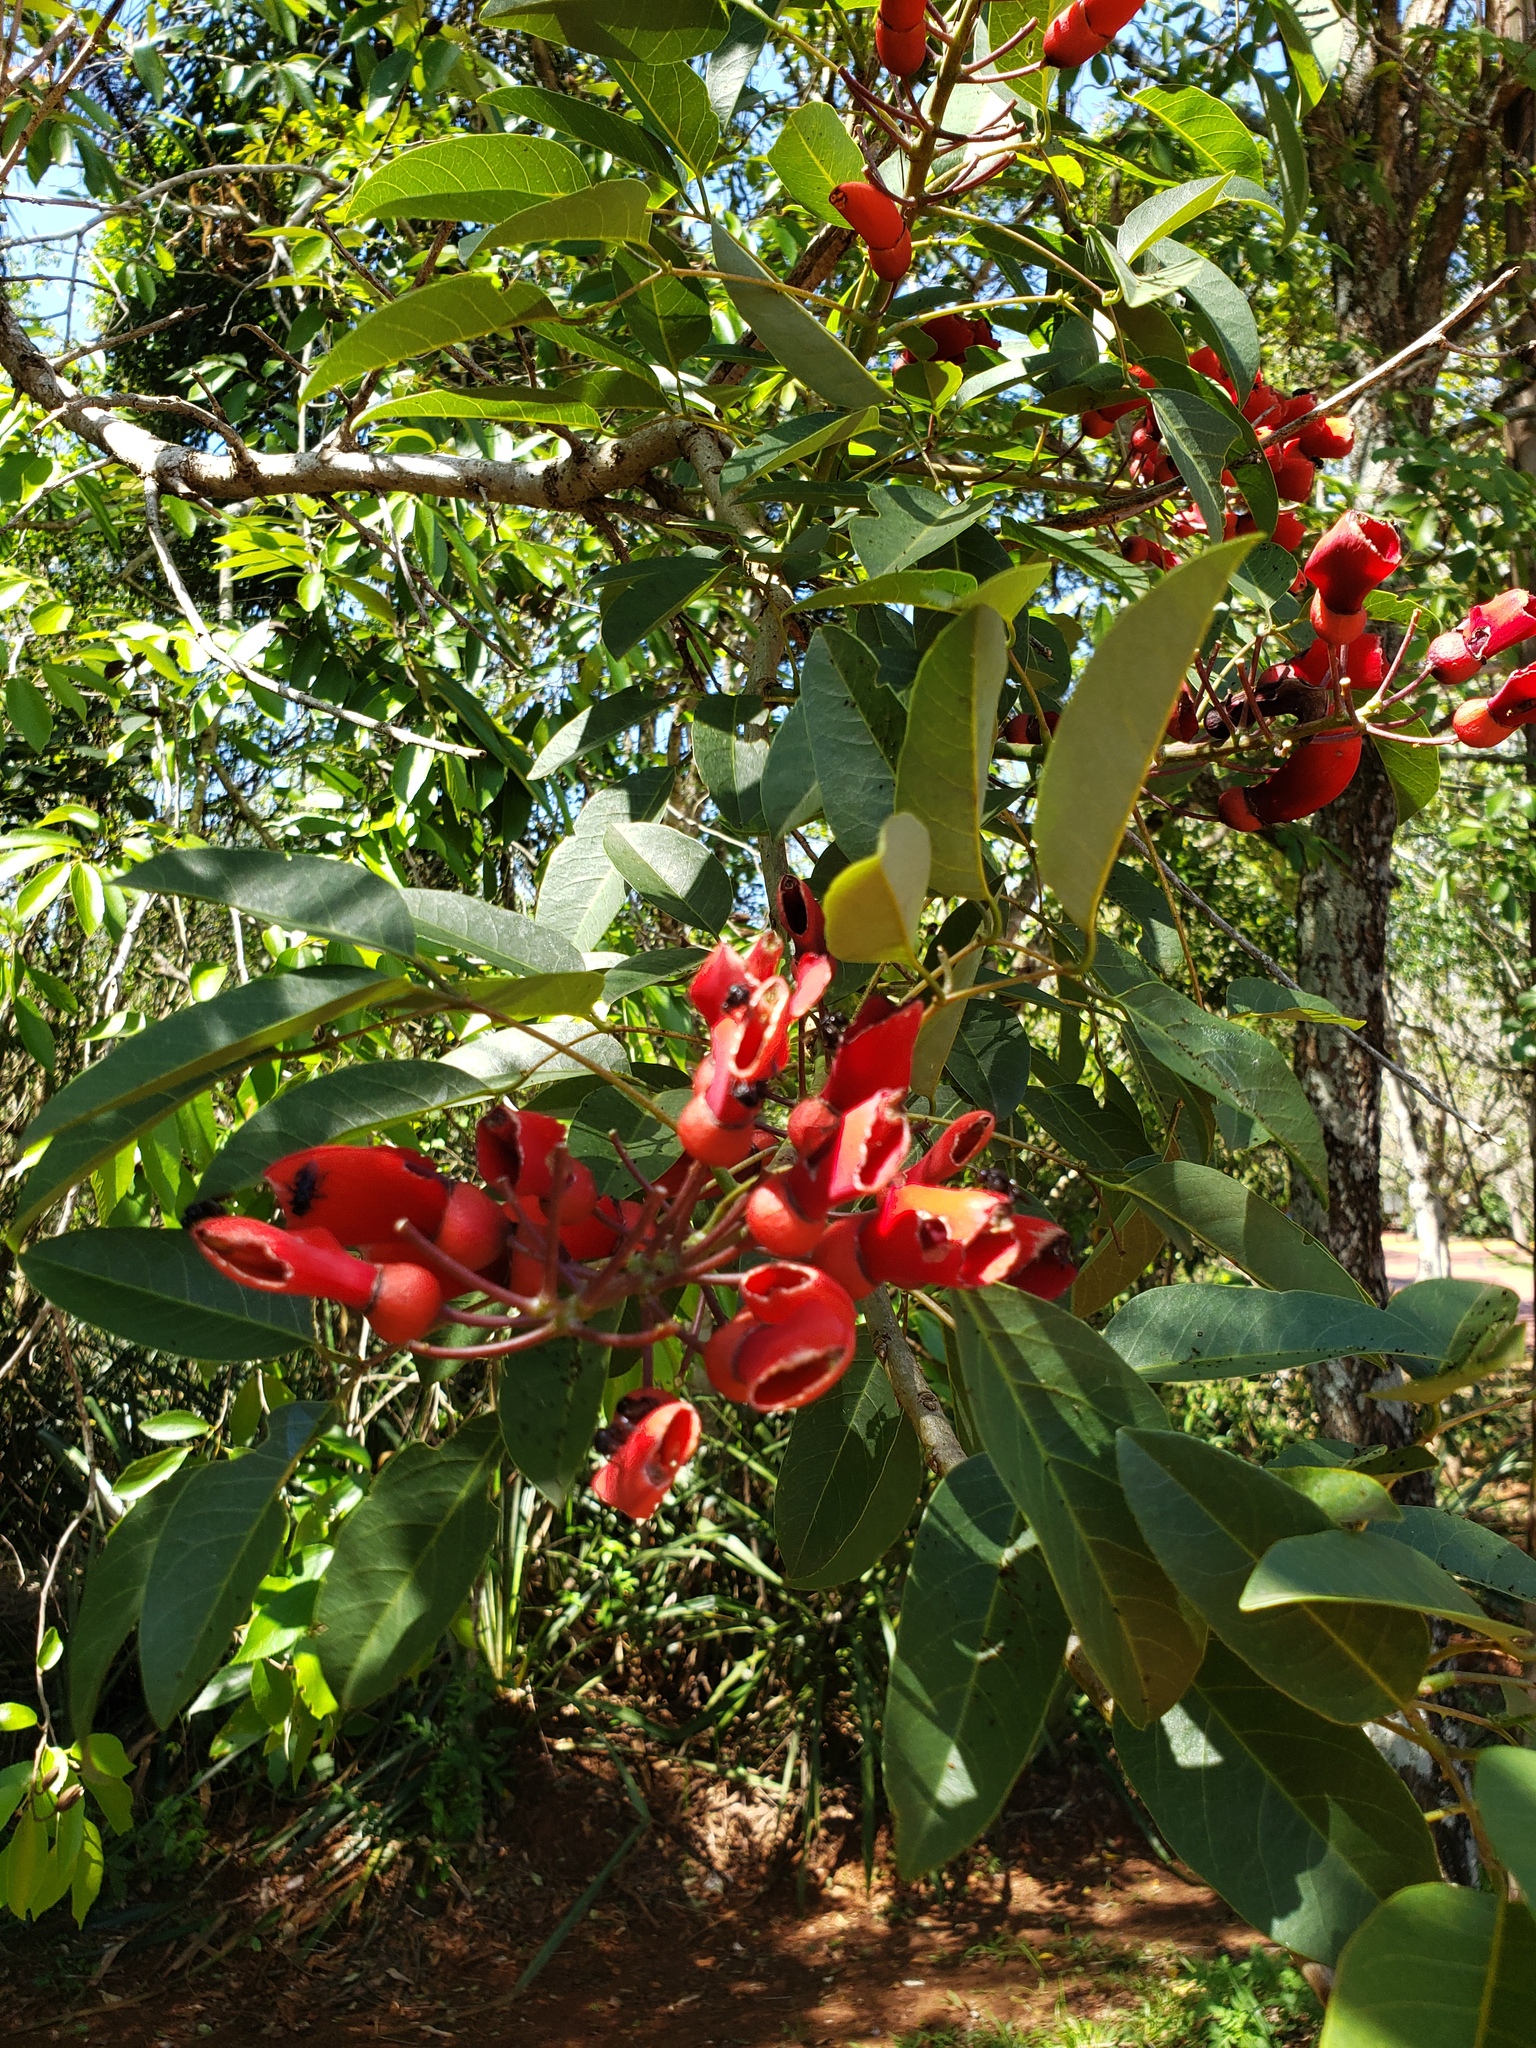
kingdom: Plantae
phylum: Tracheophyta
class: Magnoliopsida
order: Fabales
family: Fabaceae
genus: Erythrina
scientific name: Erythrina crista-galli
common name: Cockspur coral tree
